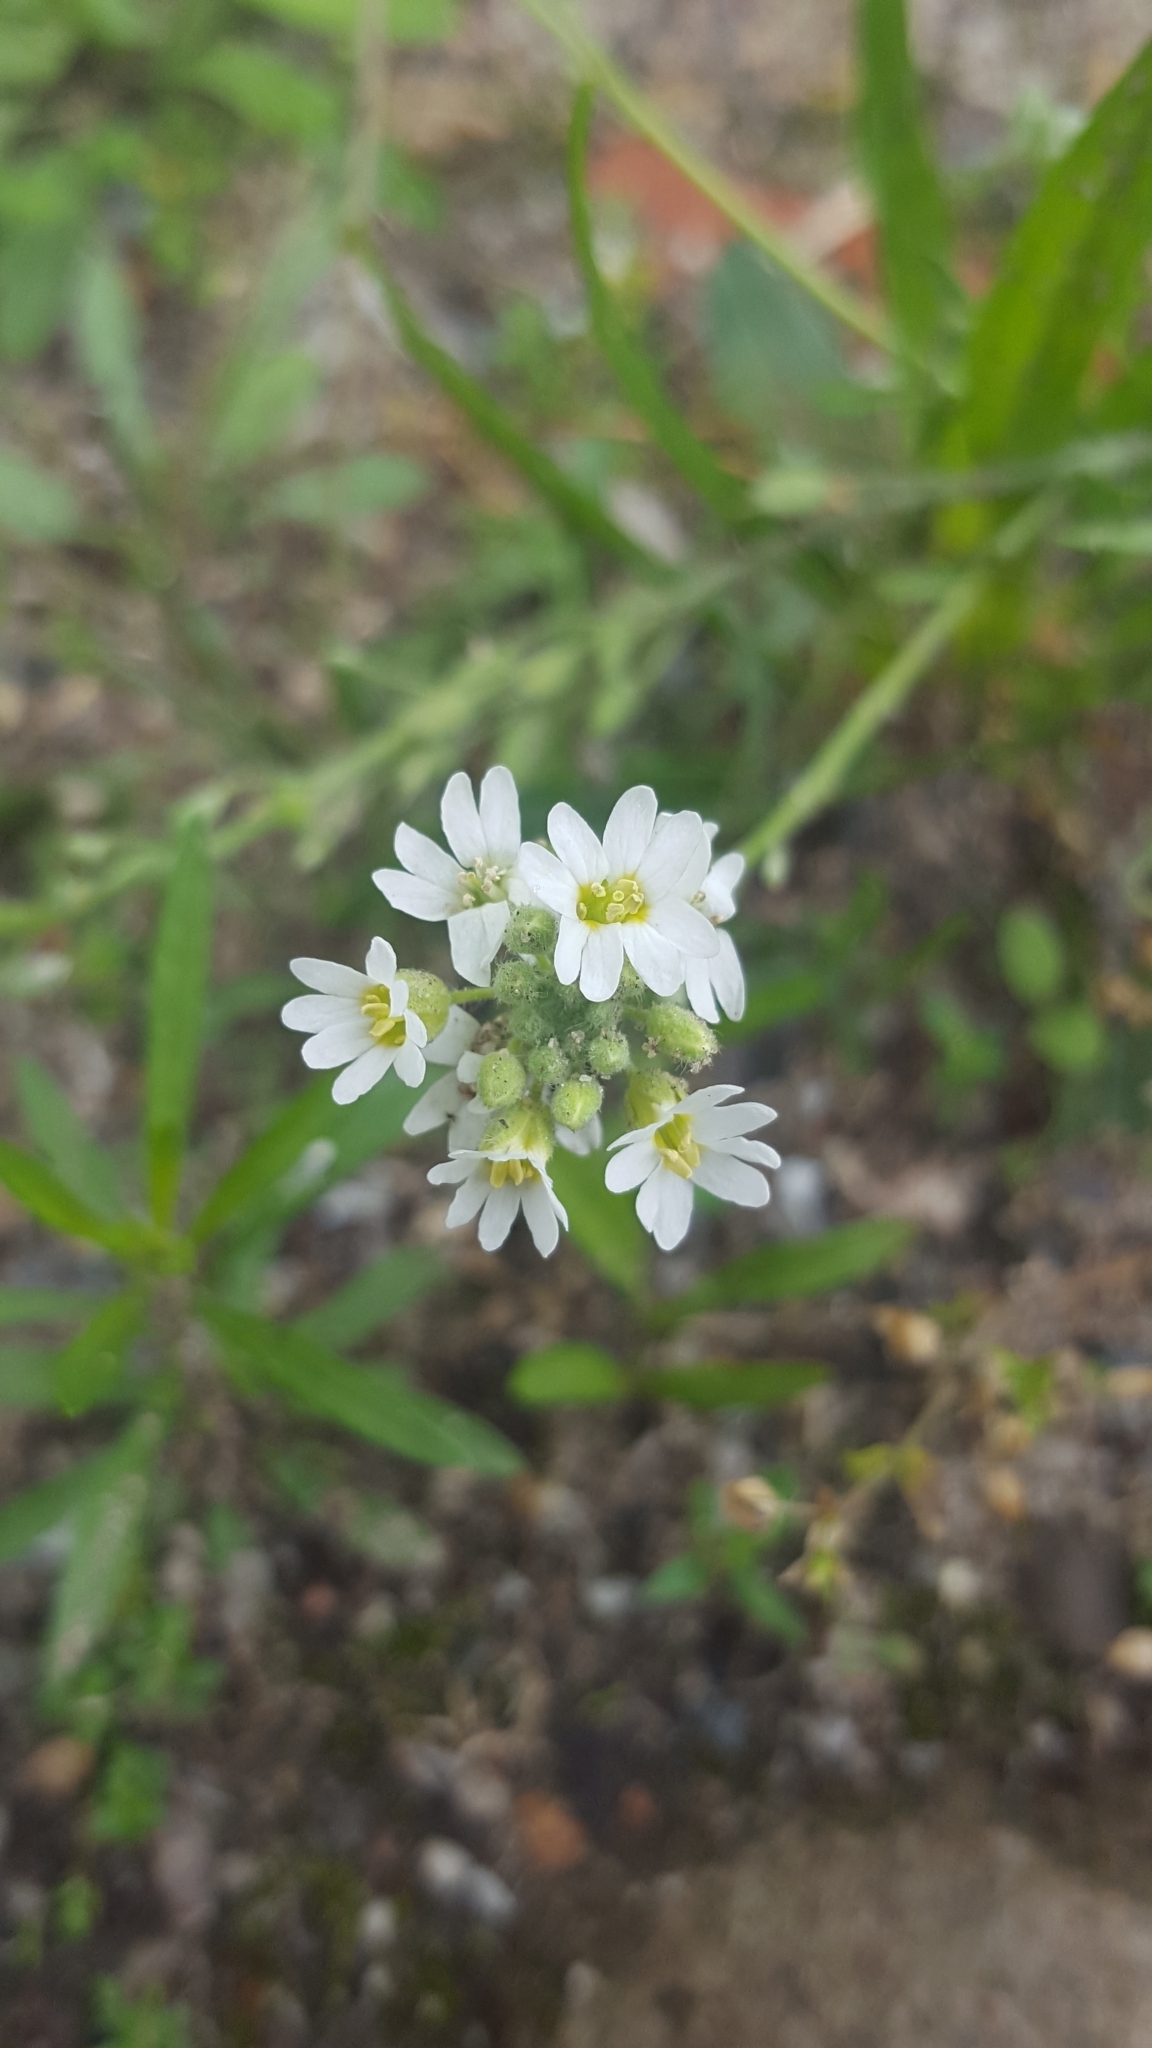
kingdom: Plantae
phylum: Tracheophyta
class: Magnoliopsida
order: Brassicales
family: Brassicaceae
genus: Berteroa
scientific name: Berteroa incana
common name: Hoary alison
